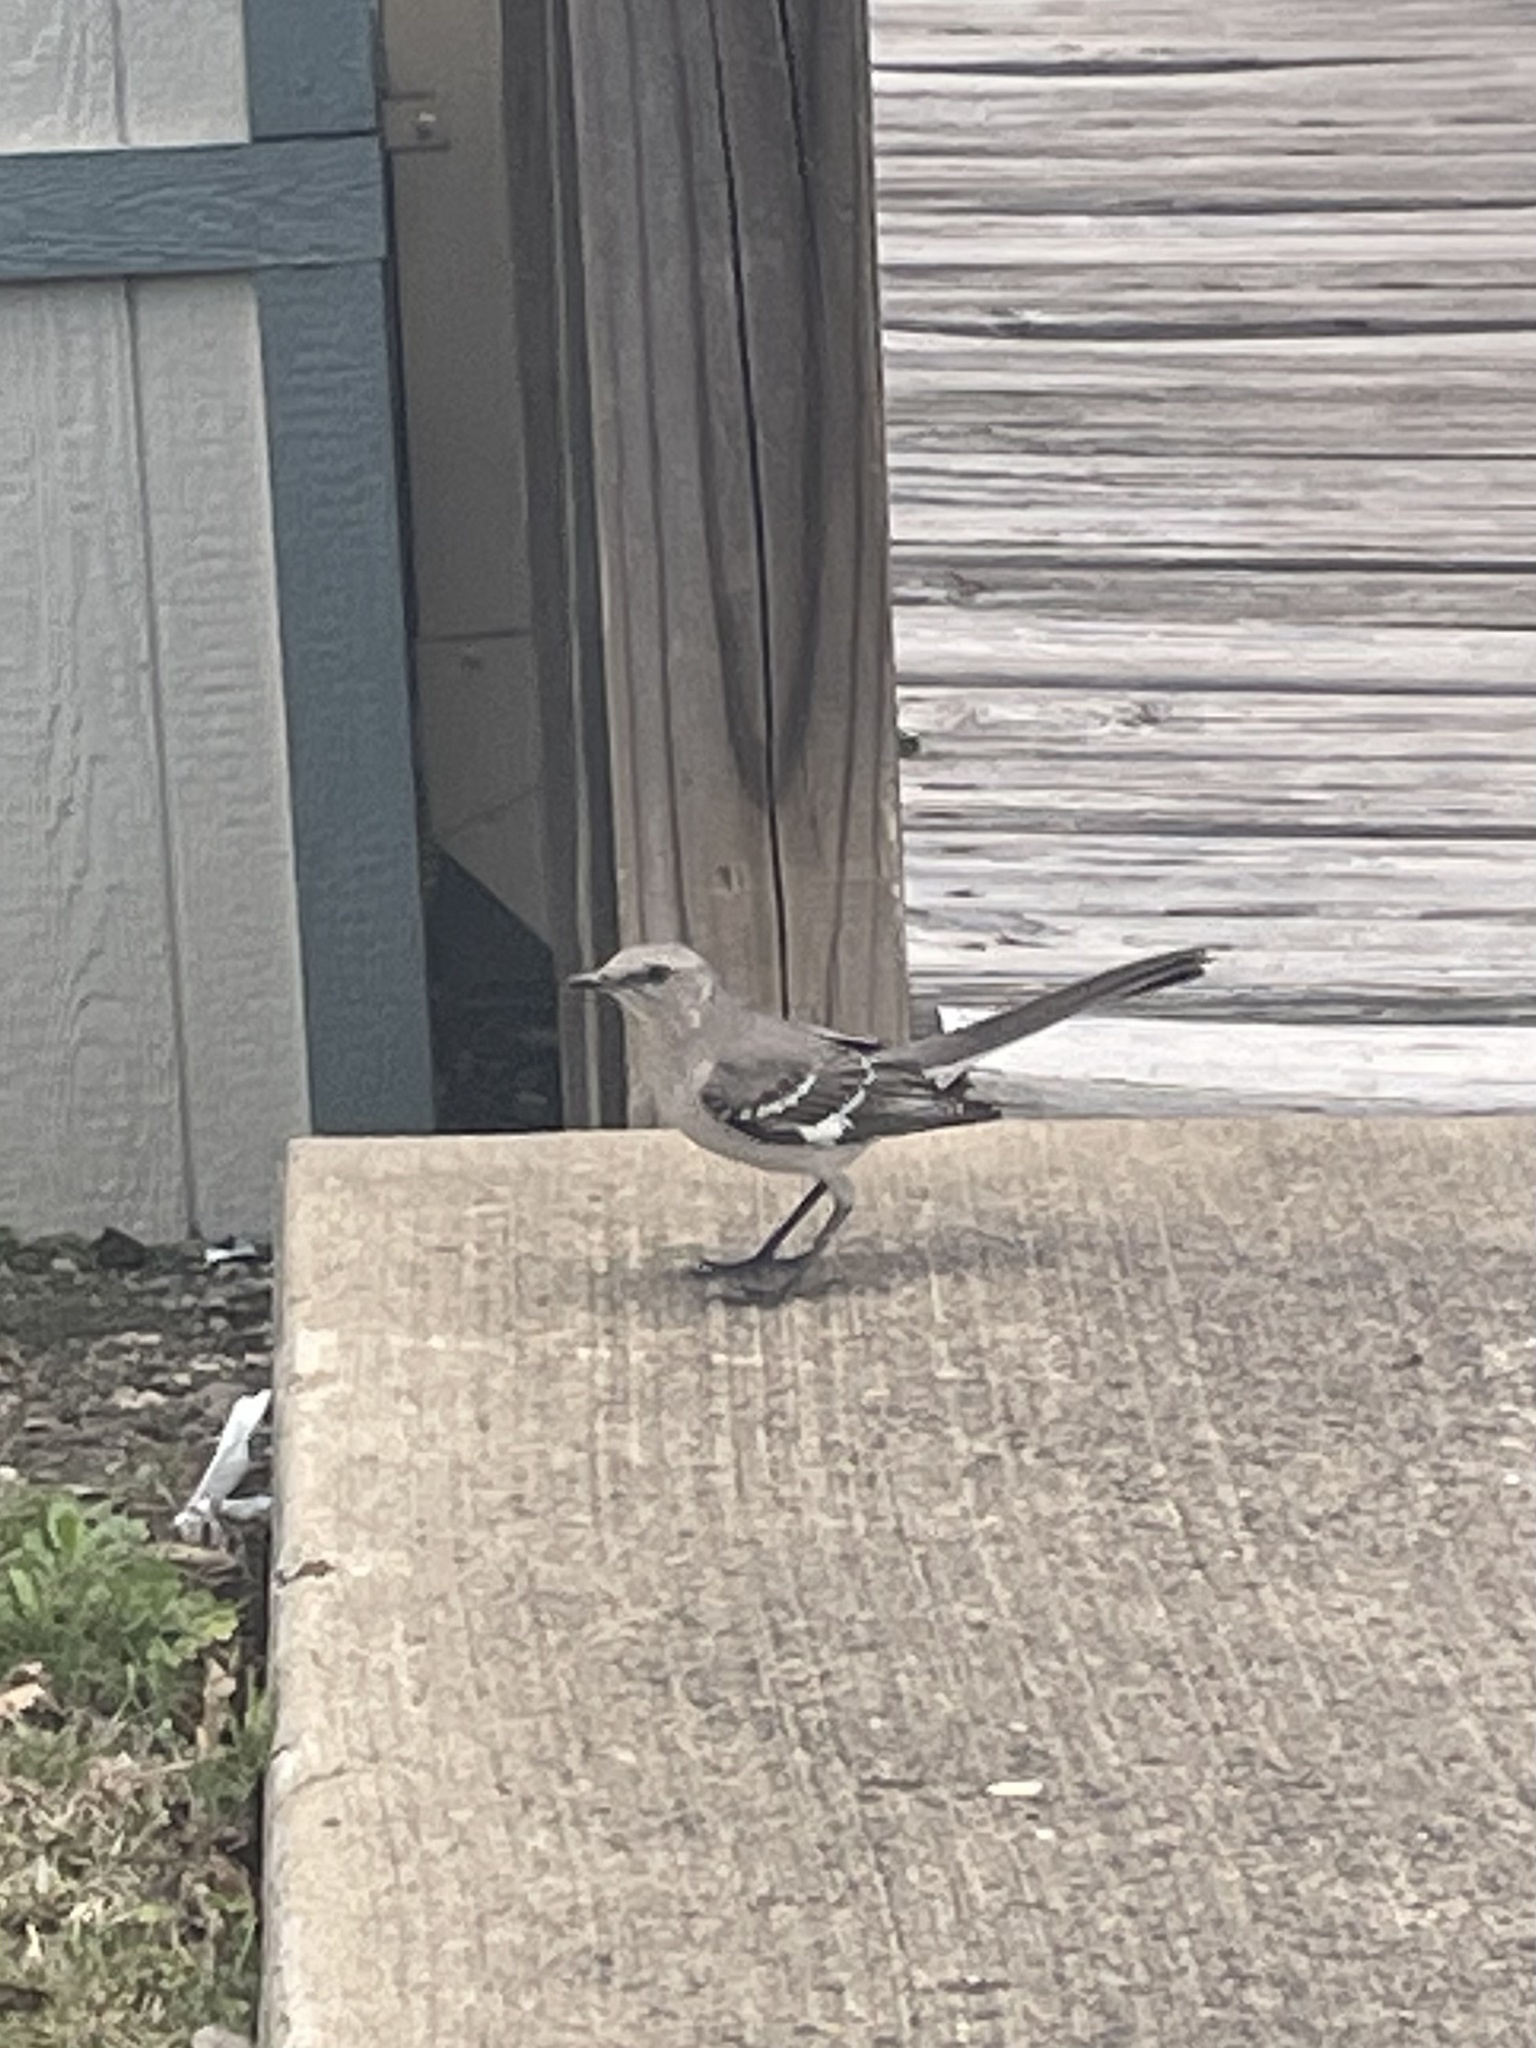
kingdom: Animalia
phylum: Chordata
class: Aves
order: Passeriformes
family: Mimidae
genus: Mimus
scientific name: Mimus polyglottos
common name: Northern mockingbird
